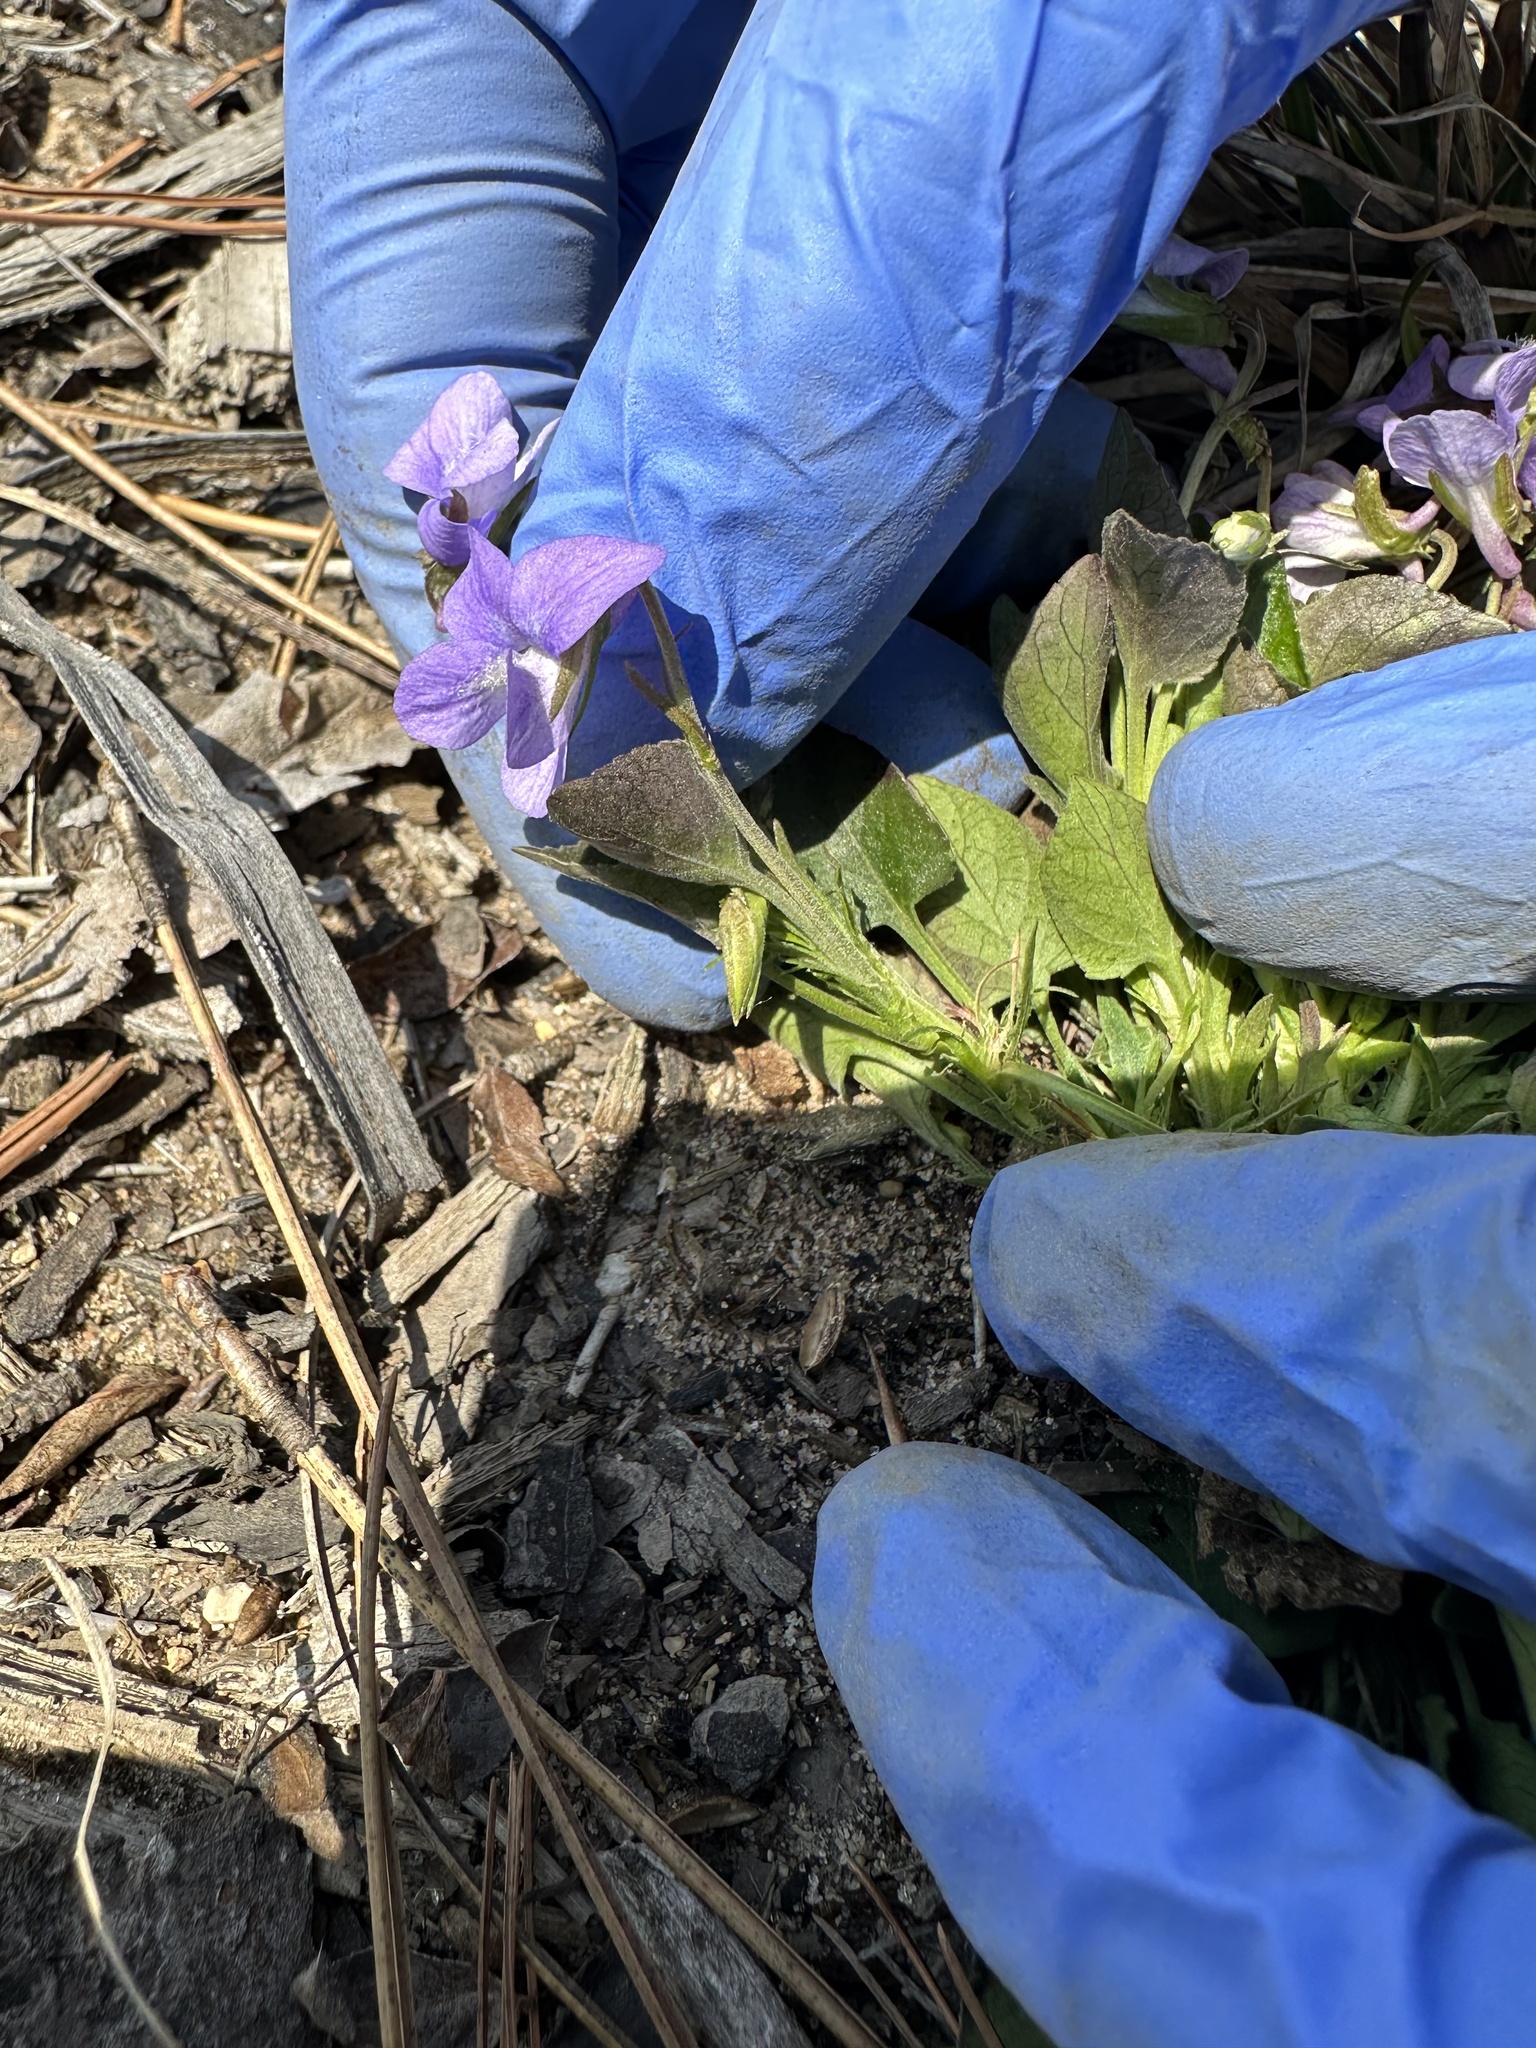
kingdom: Plantae
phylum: Tracheophyta
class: Magnoliopsida
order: Malpighiales
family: Violaceae
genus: Viola
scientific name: Viola adunca
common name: Sand violet
